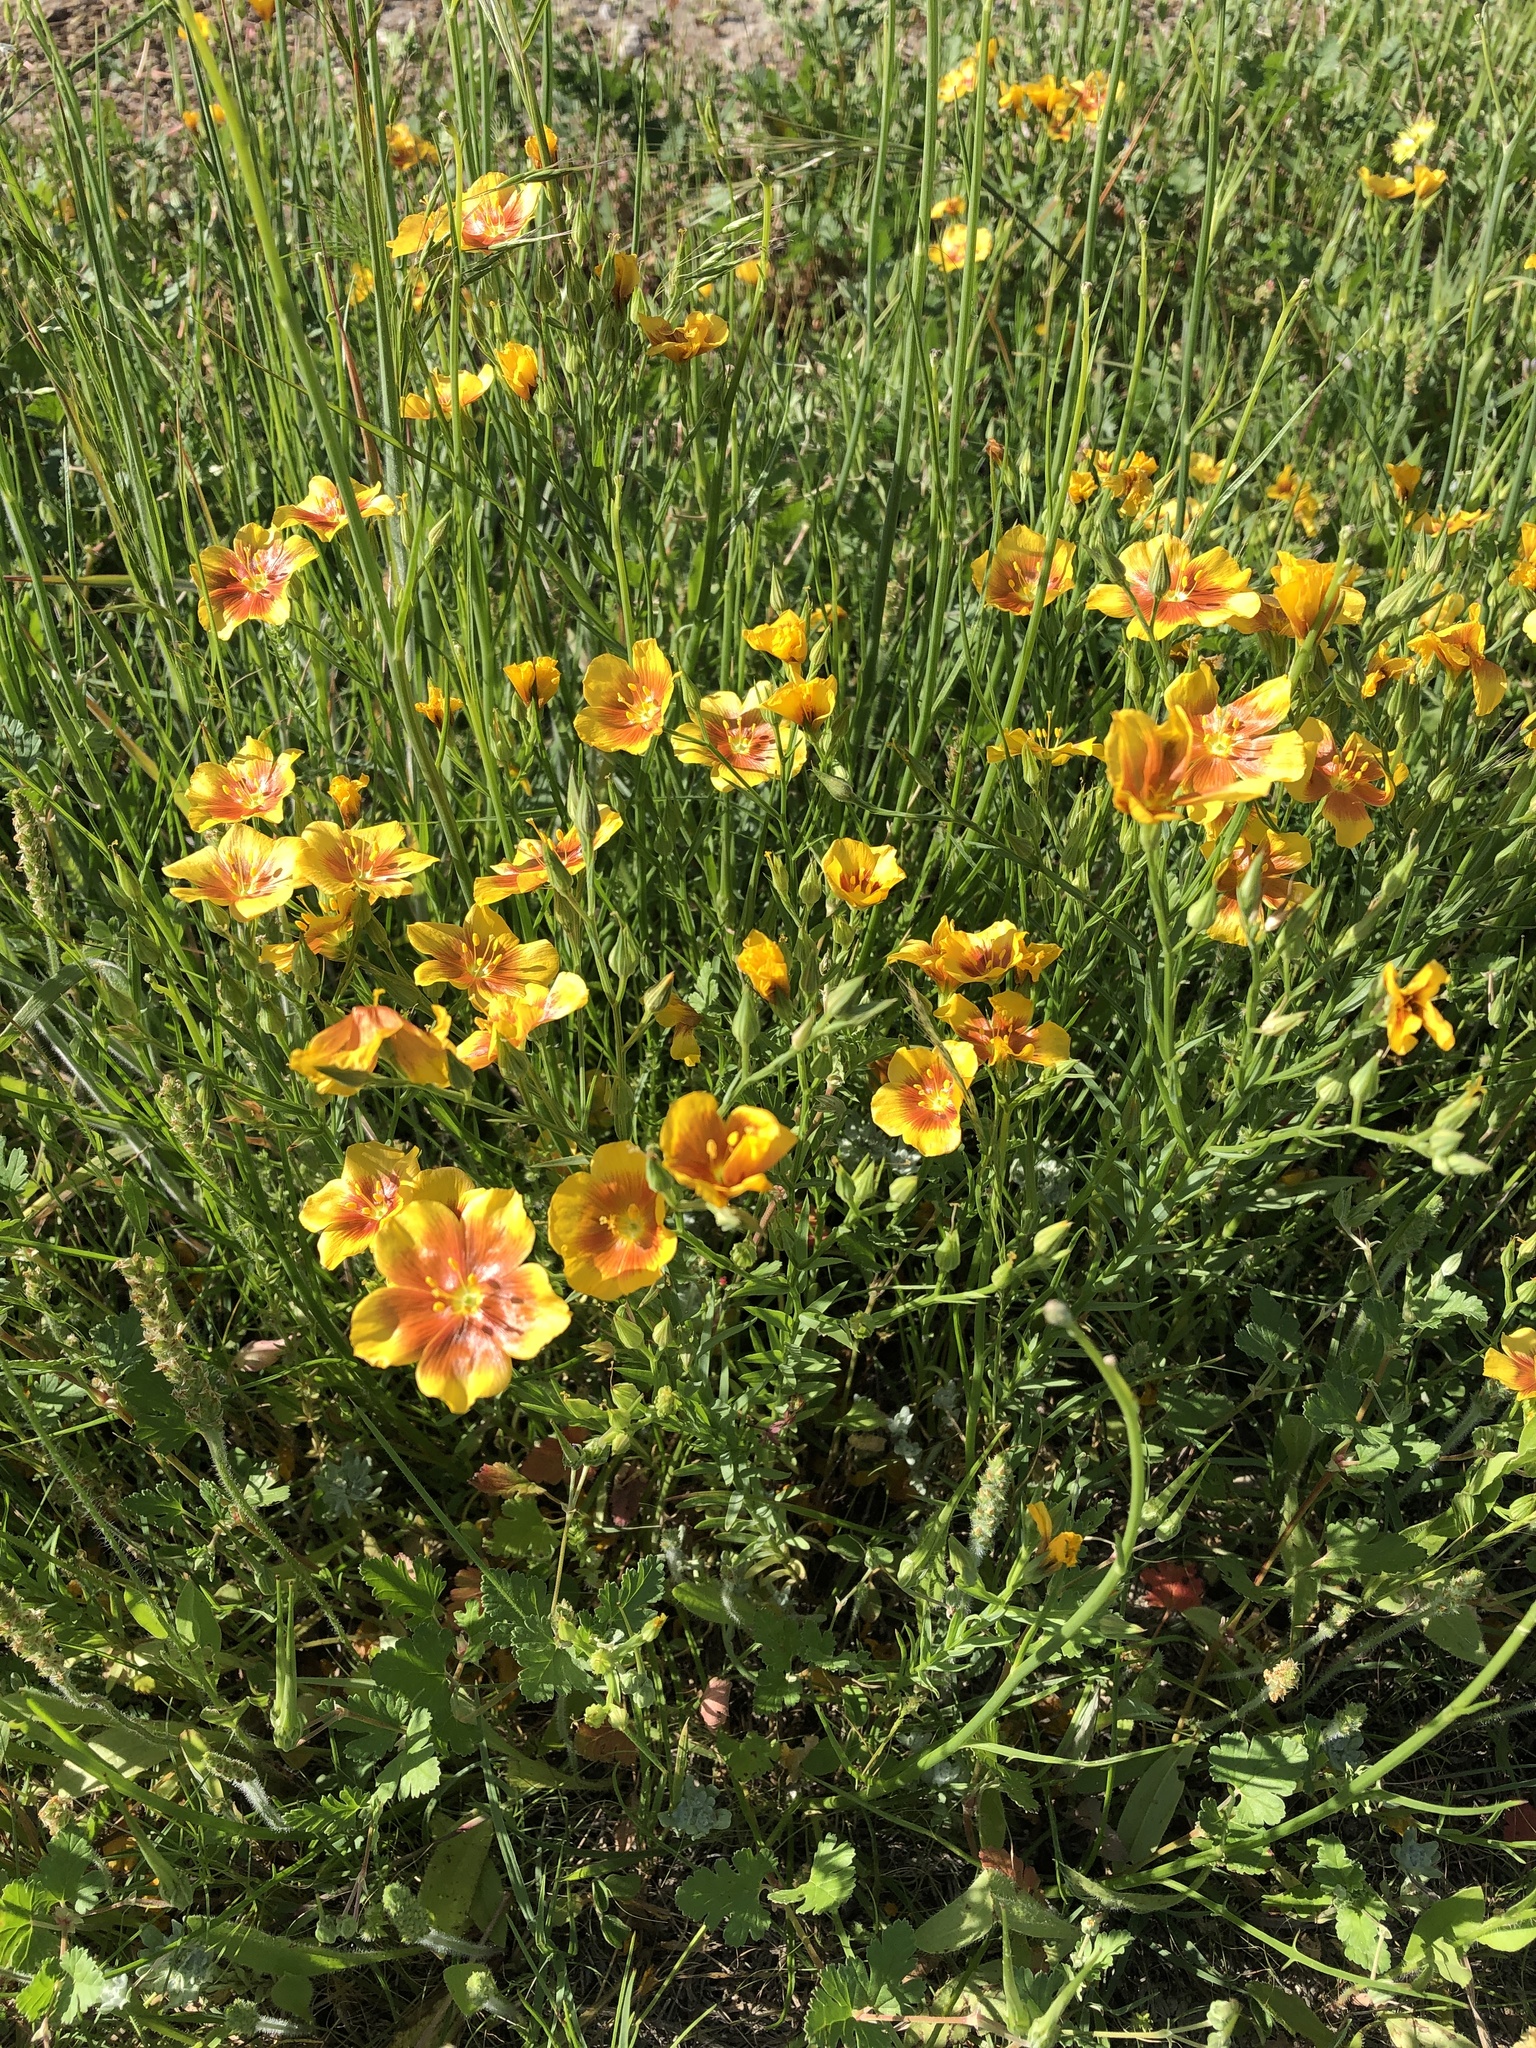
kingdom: Plantae
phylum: Tracheophyta
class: Magnoliopsida
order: Malpighiales
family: Linaceae
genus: Linum
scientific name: Linum rigidum
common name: Stiff-stem flax
